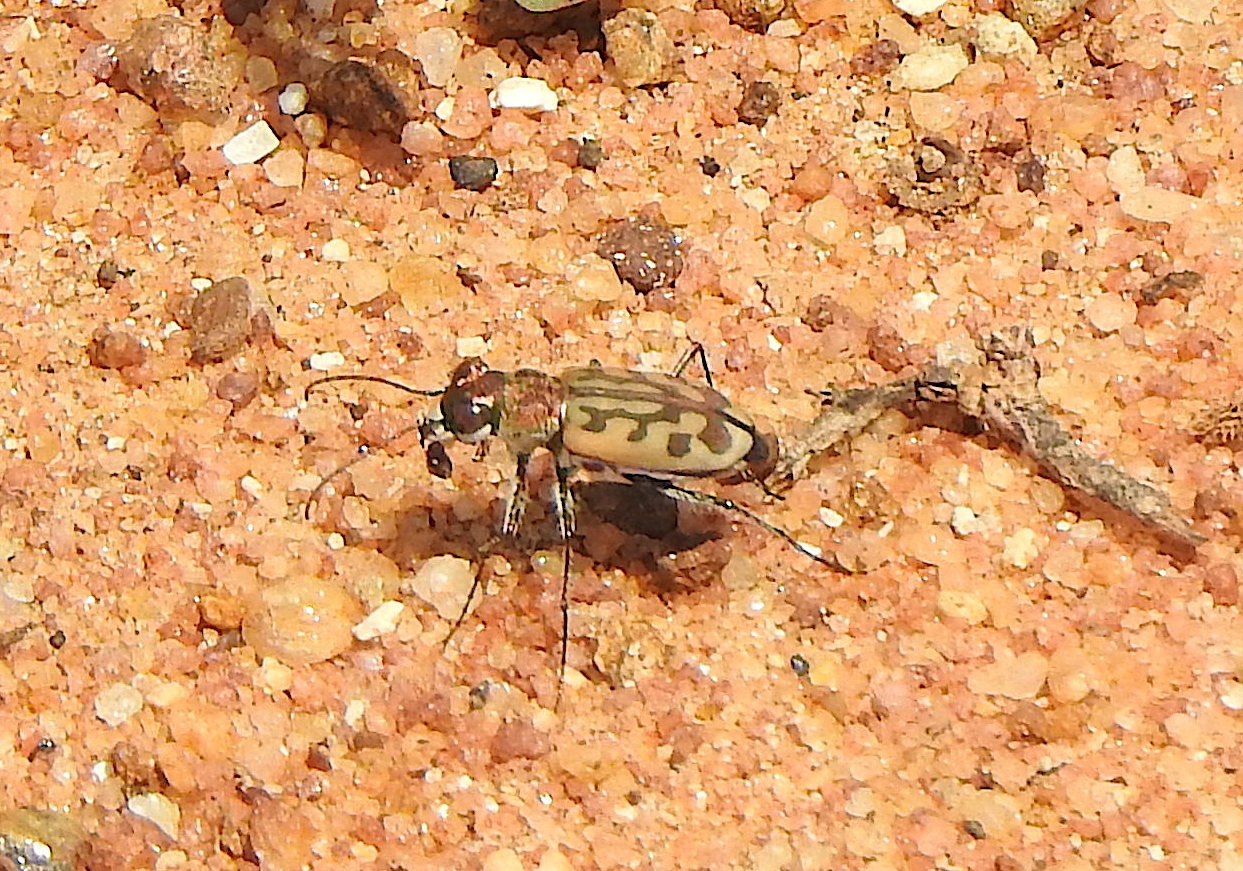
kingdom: Animalia
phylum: Arthropoda
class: Insecta
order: Coleoptera
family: Carabidae
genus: Lophyra
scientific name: Lophyra catena
